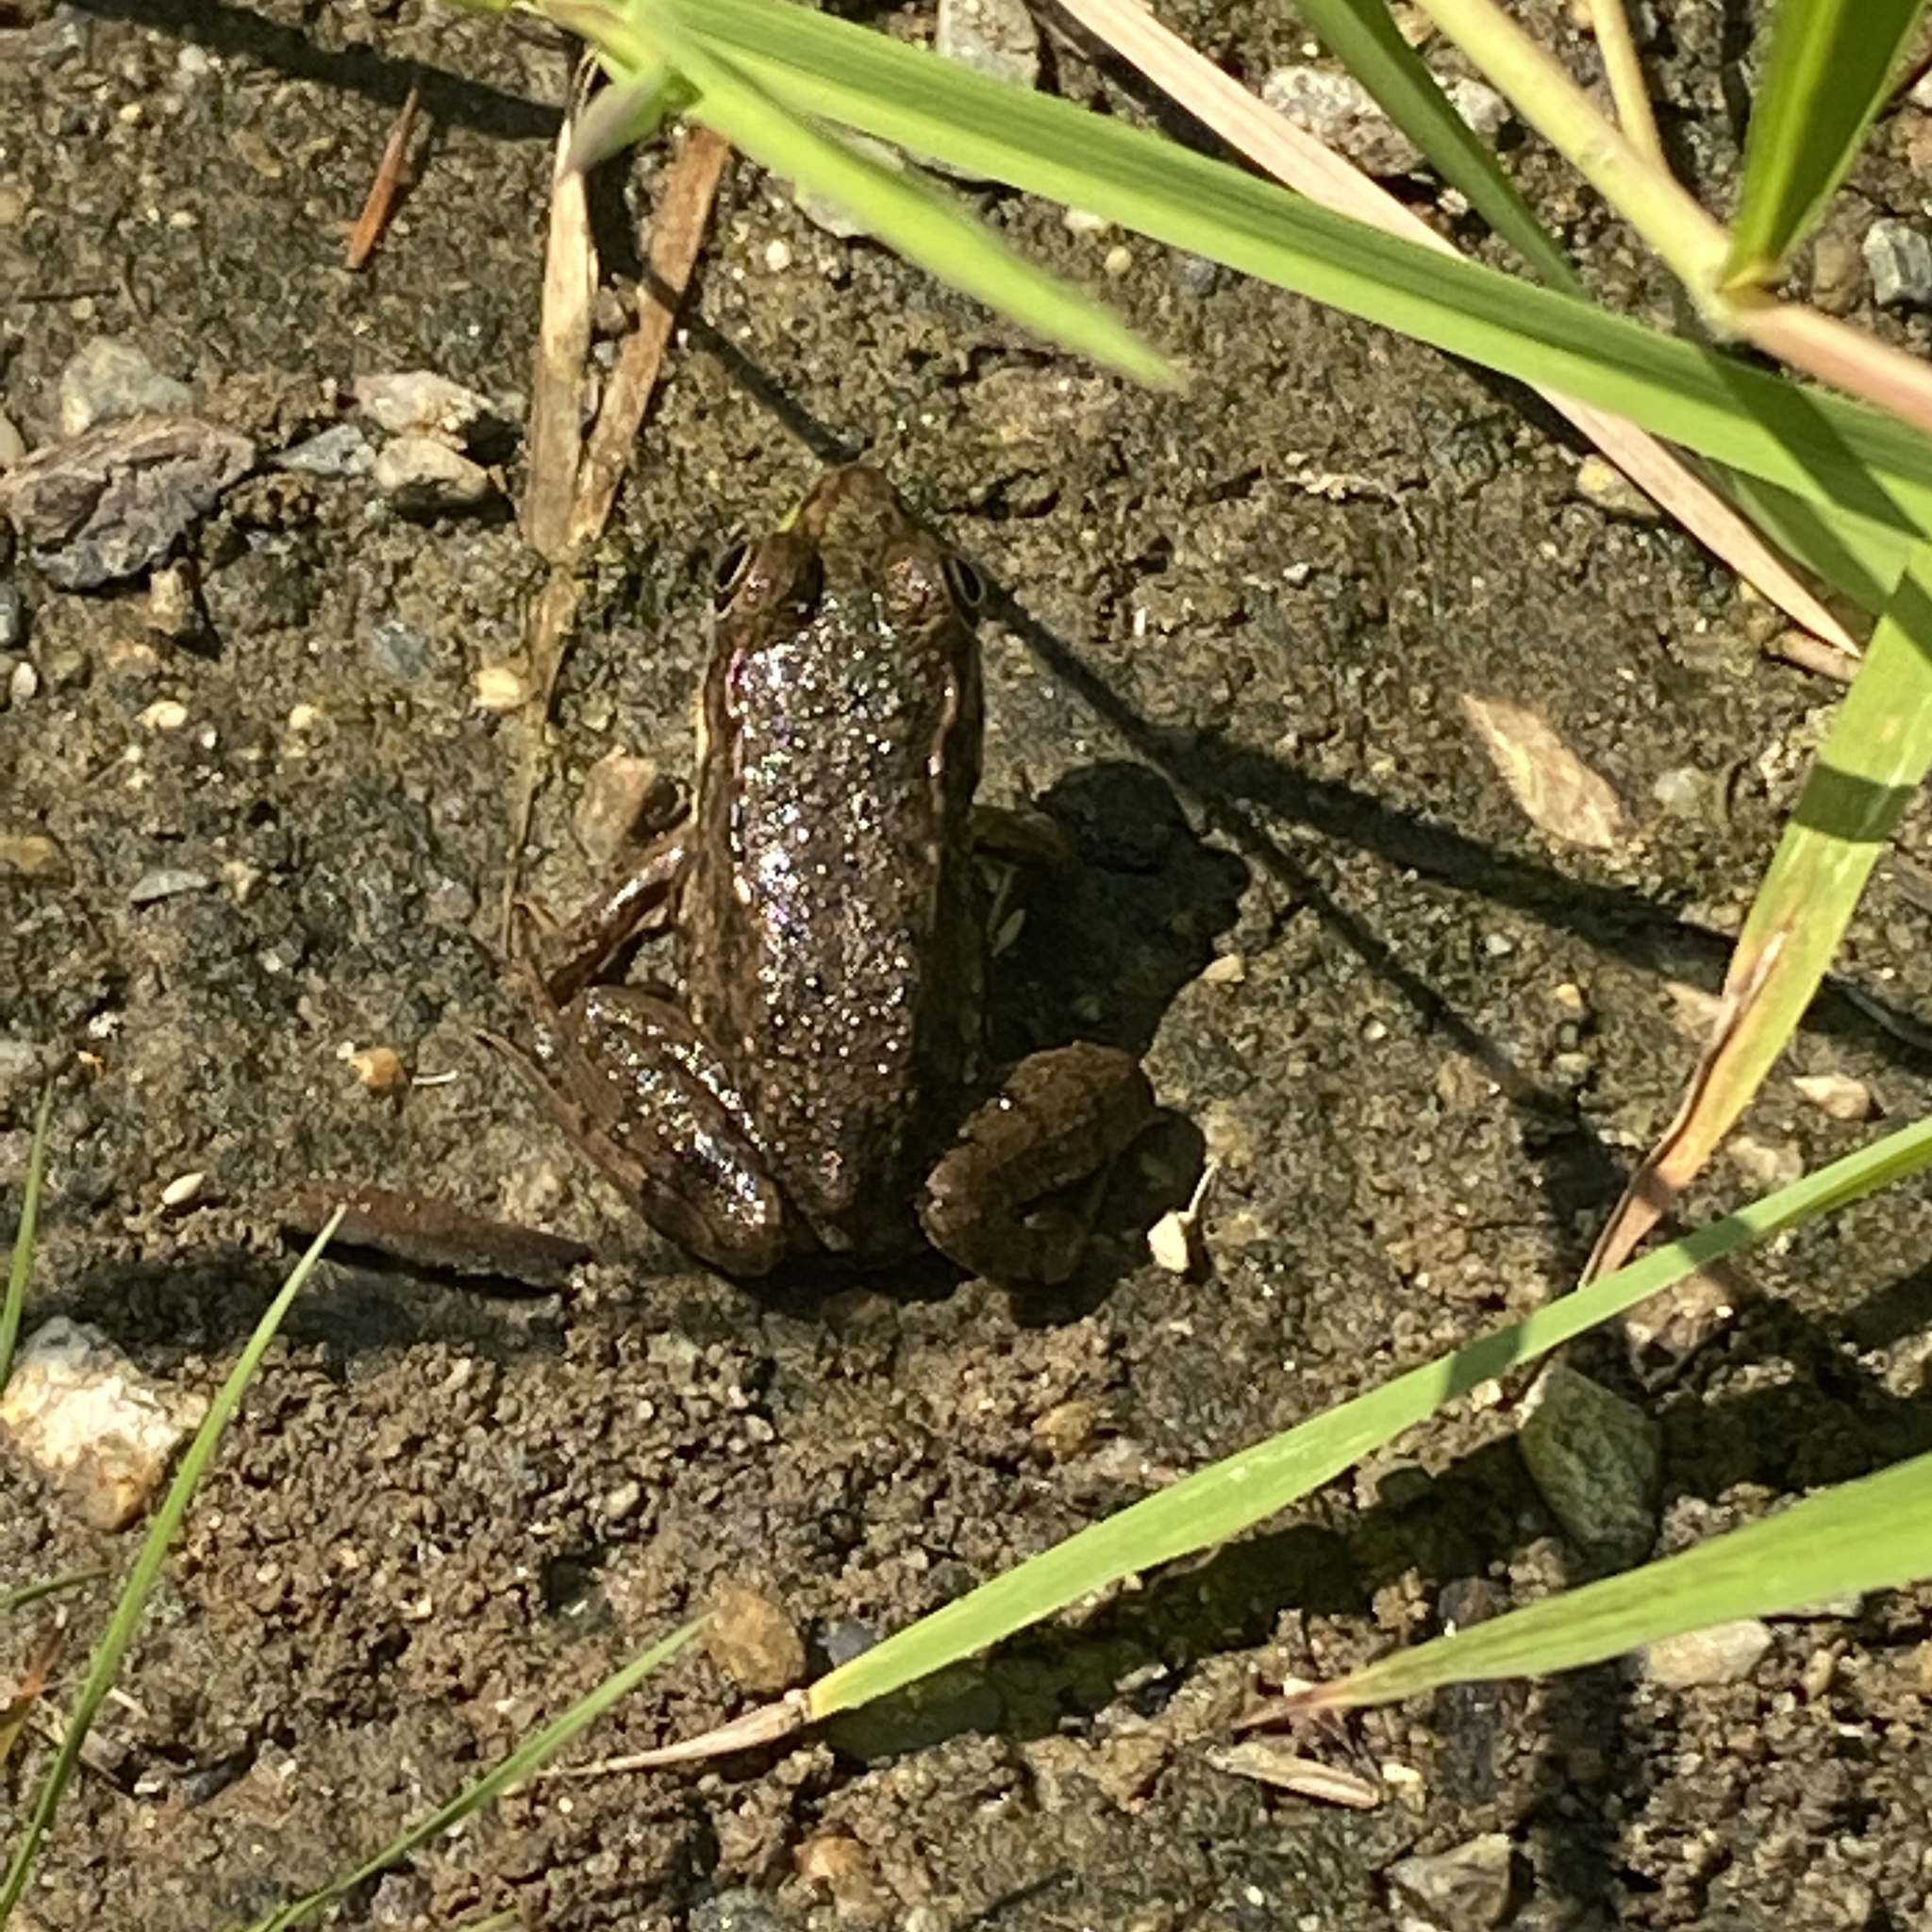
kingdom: Animalia
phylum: Chordata
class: Amphibia
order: Anura
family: Ranidae
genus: Lithobates
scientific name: Lithobates clamitans
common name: Green frog
